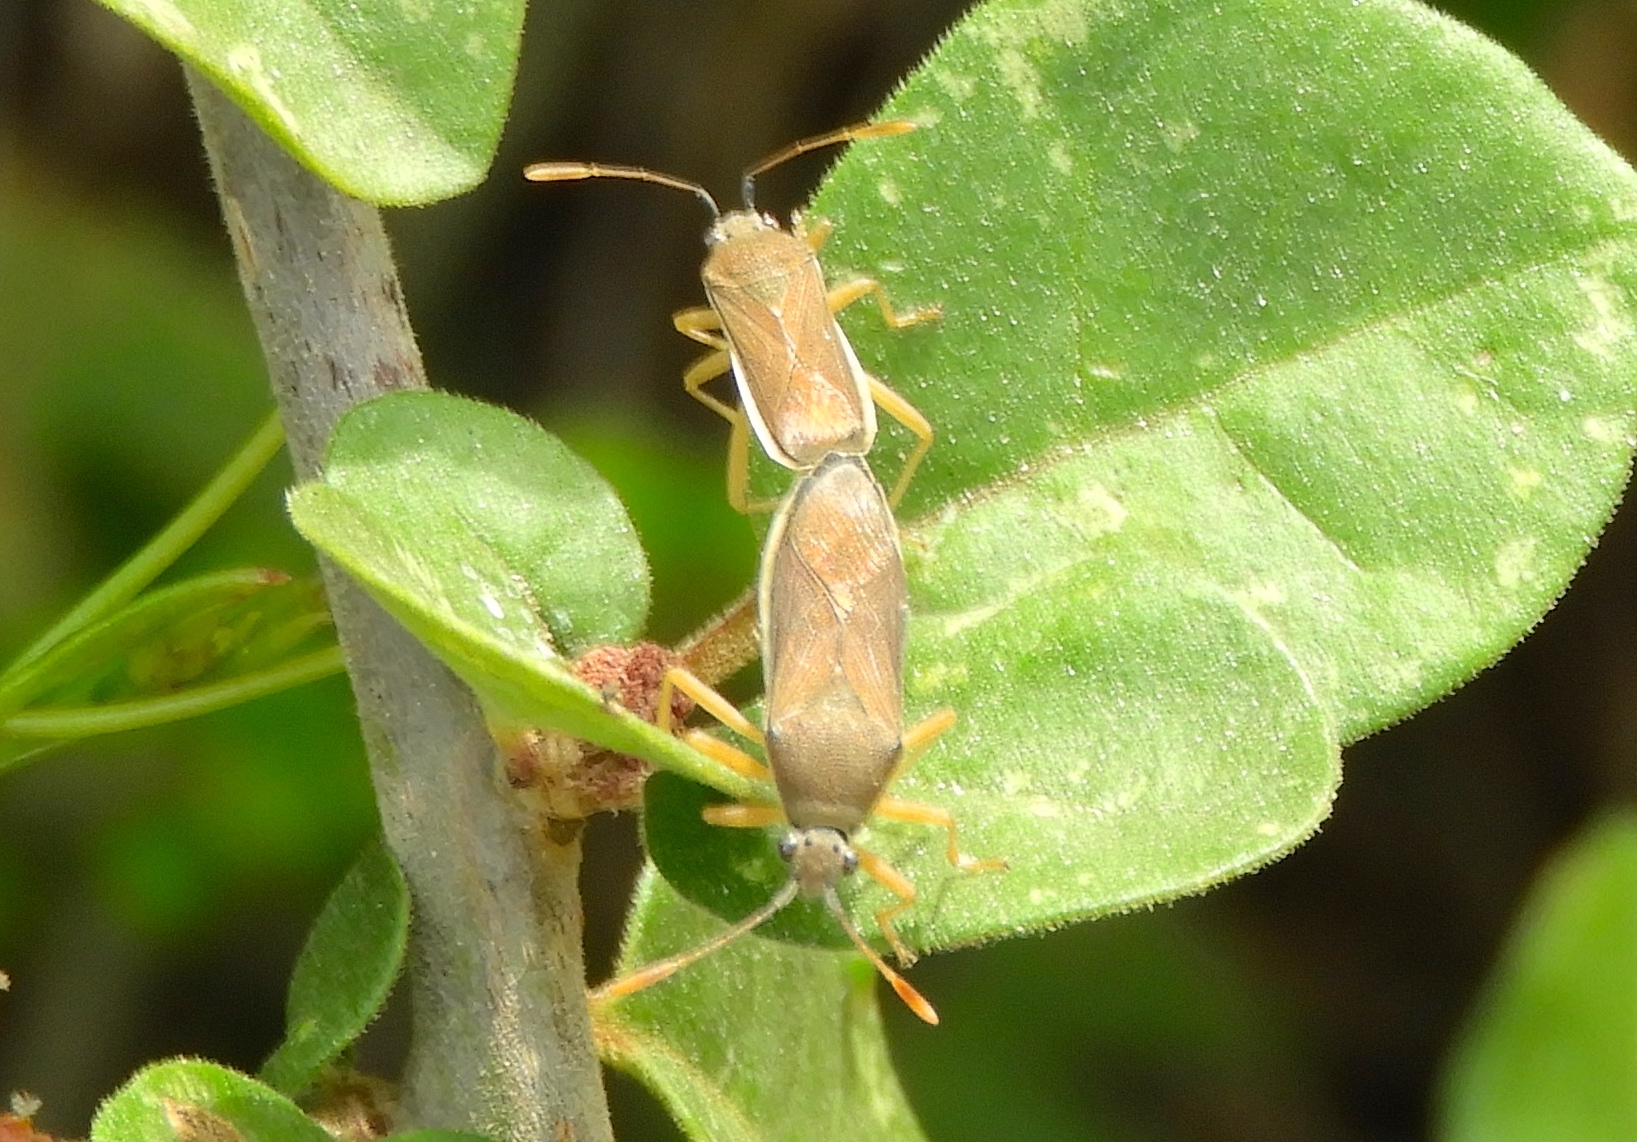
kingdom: Animalia
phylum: Arthropoda
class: Insecta
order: Hemiptera
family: Coreidae
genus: Catorhintha
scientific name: Catorhintha
